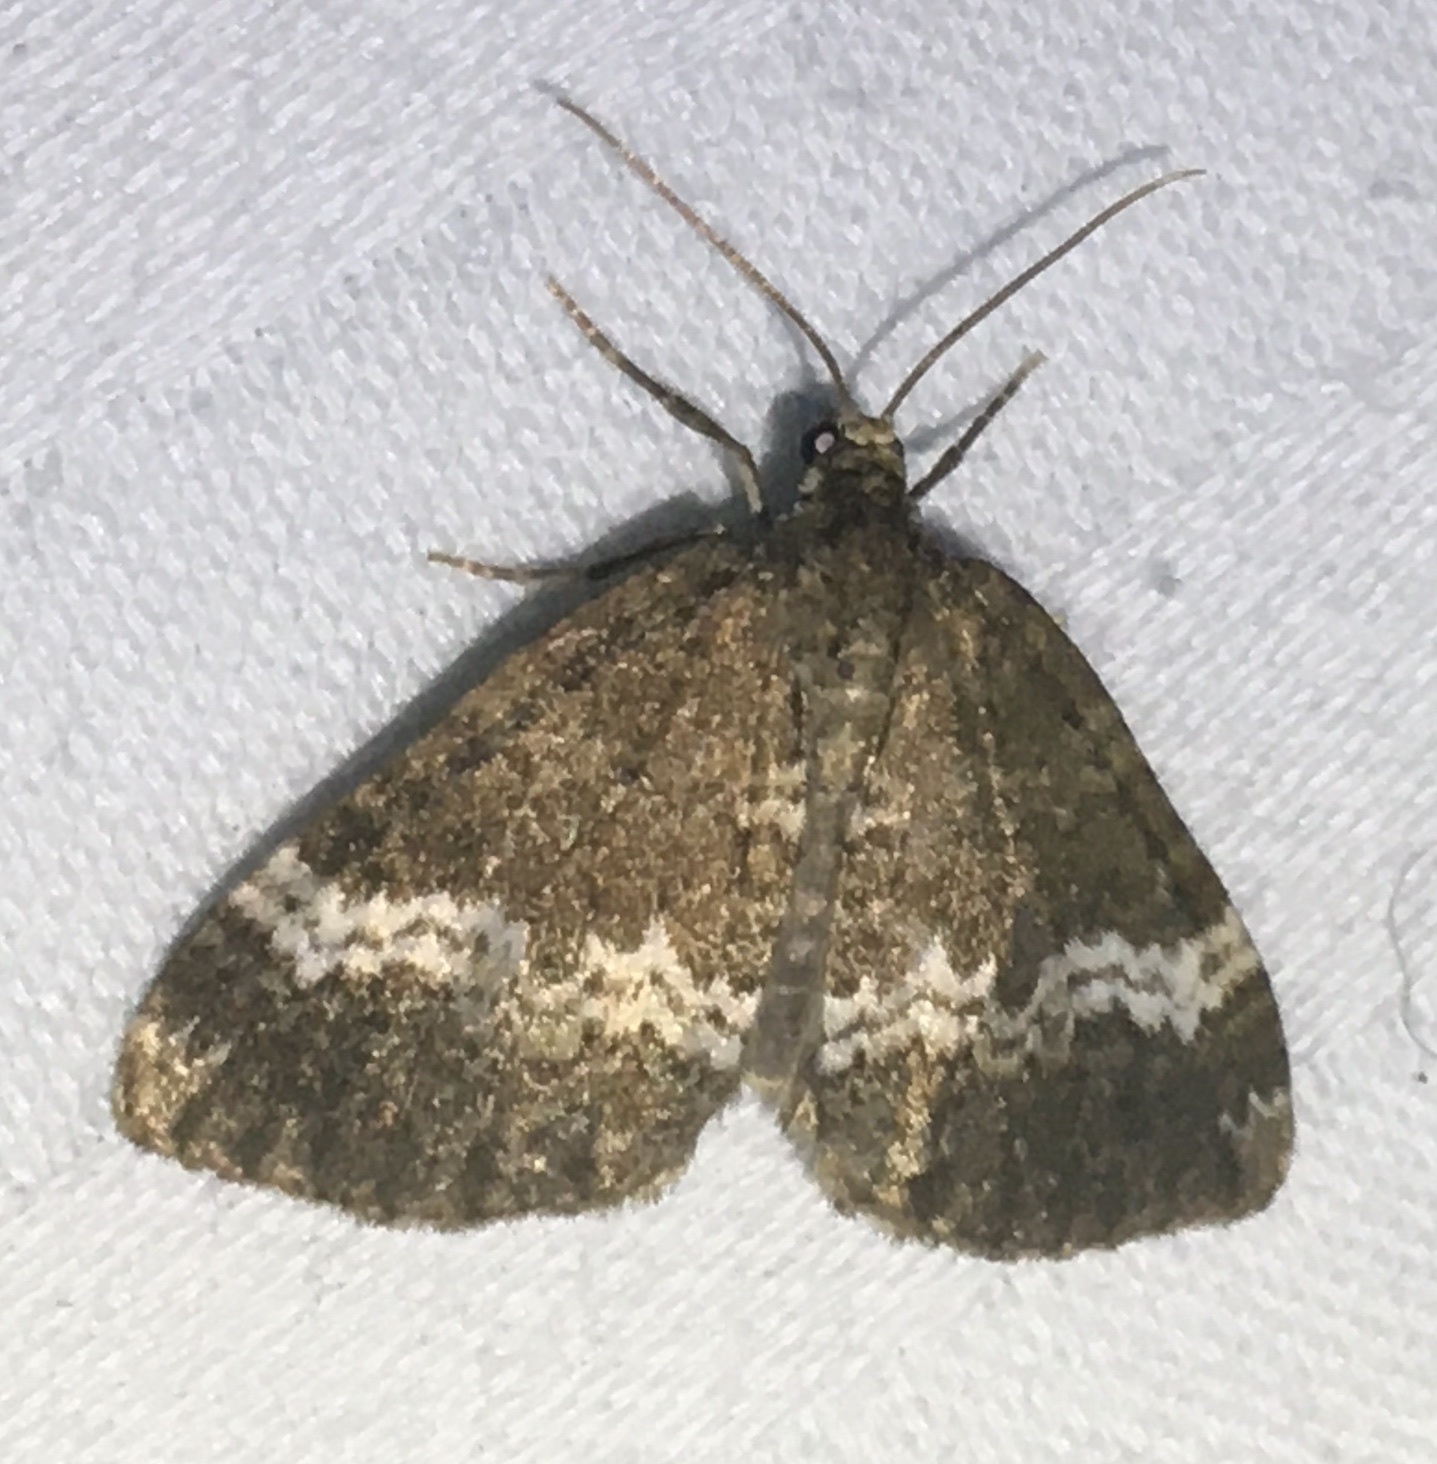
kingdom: Animalia
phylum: Arthropoda
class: Insecta
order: Lepidoptera
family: Geometridae
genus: Perizoma
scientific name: Perizoma affinitata
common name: Rivulet
